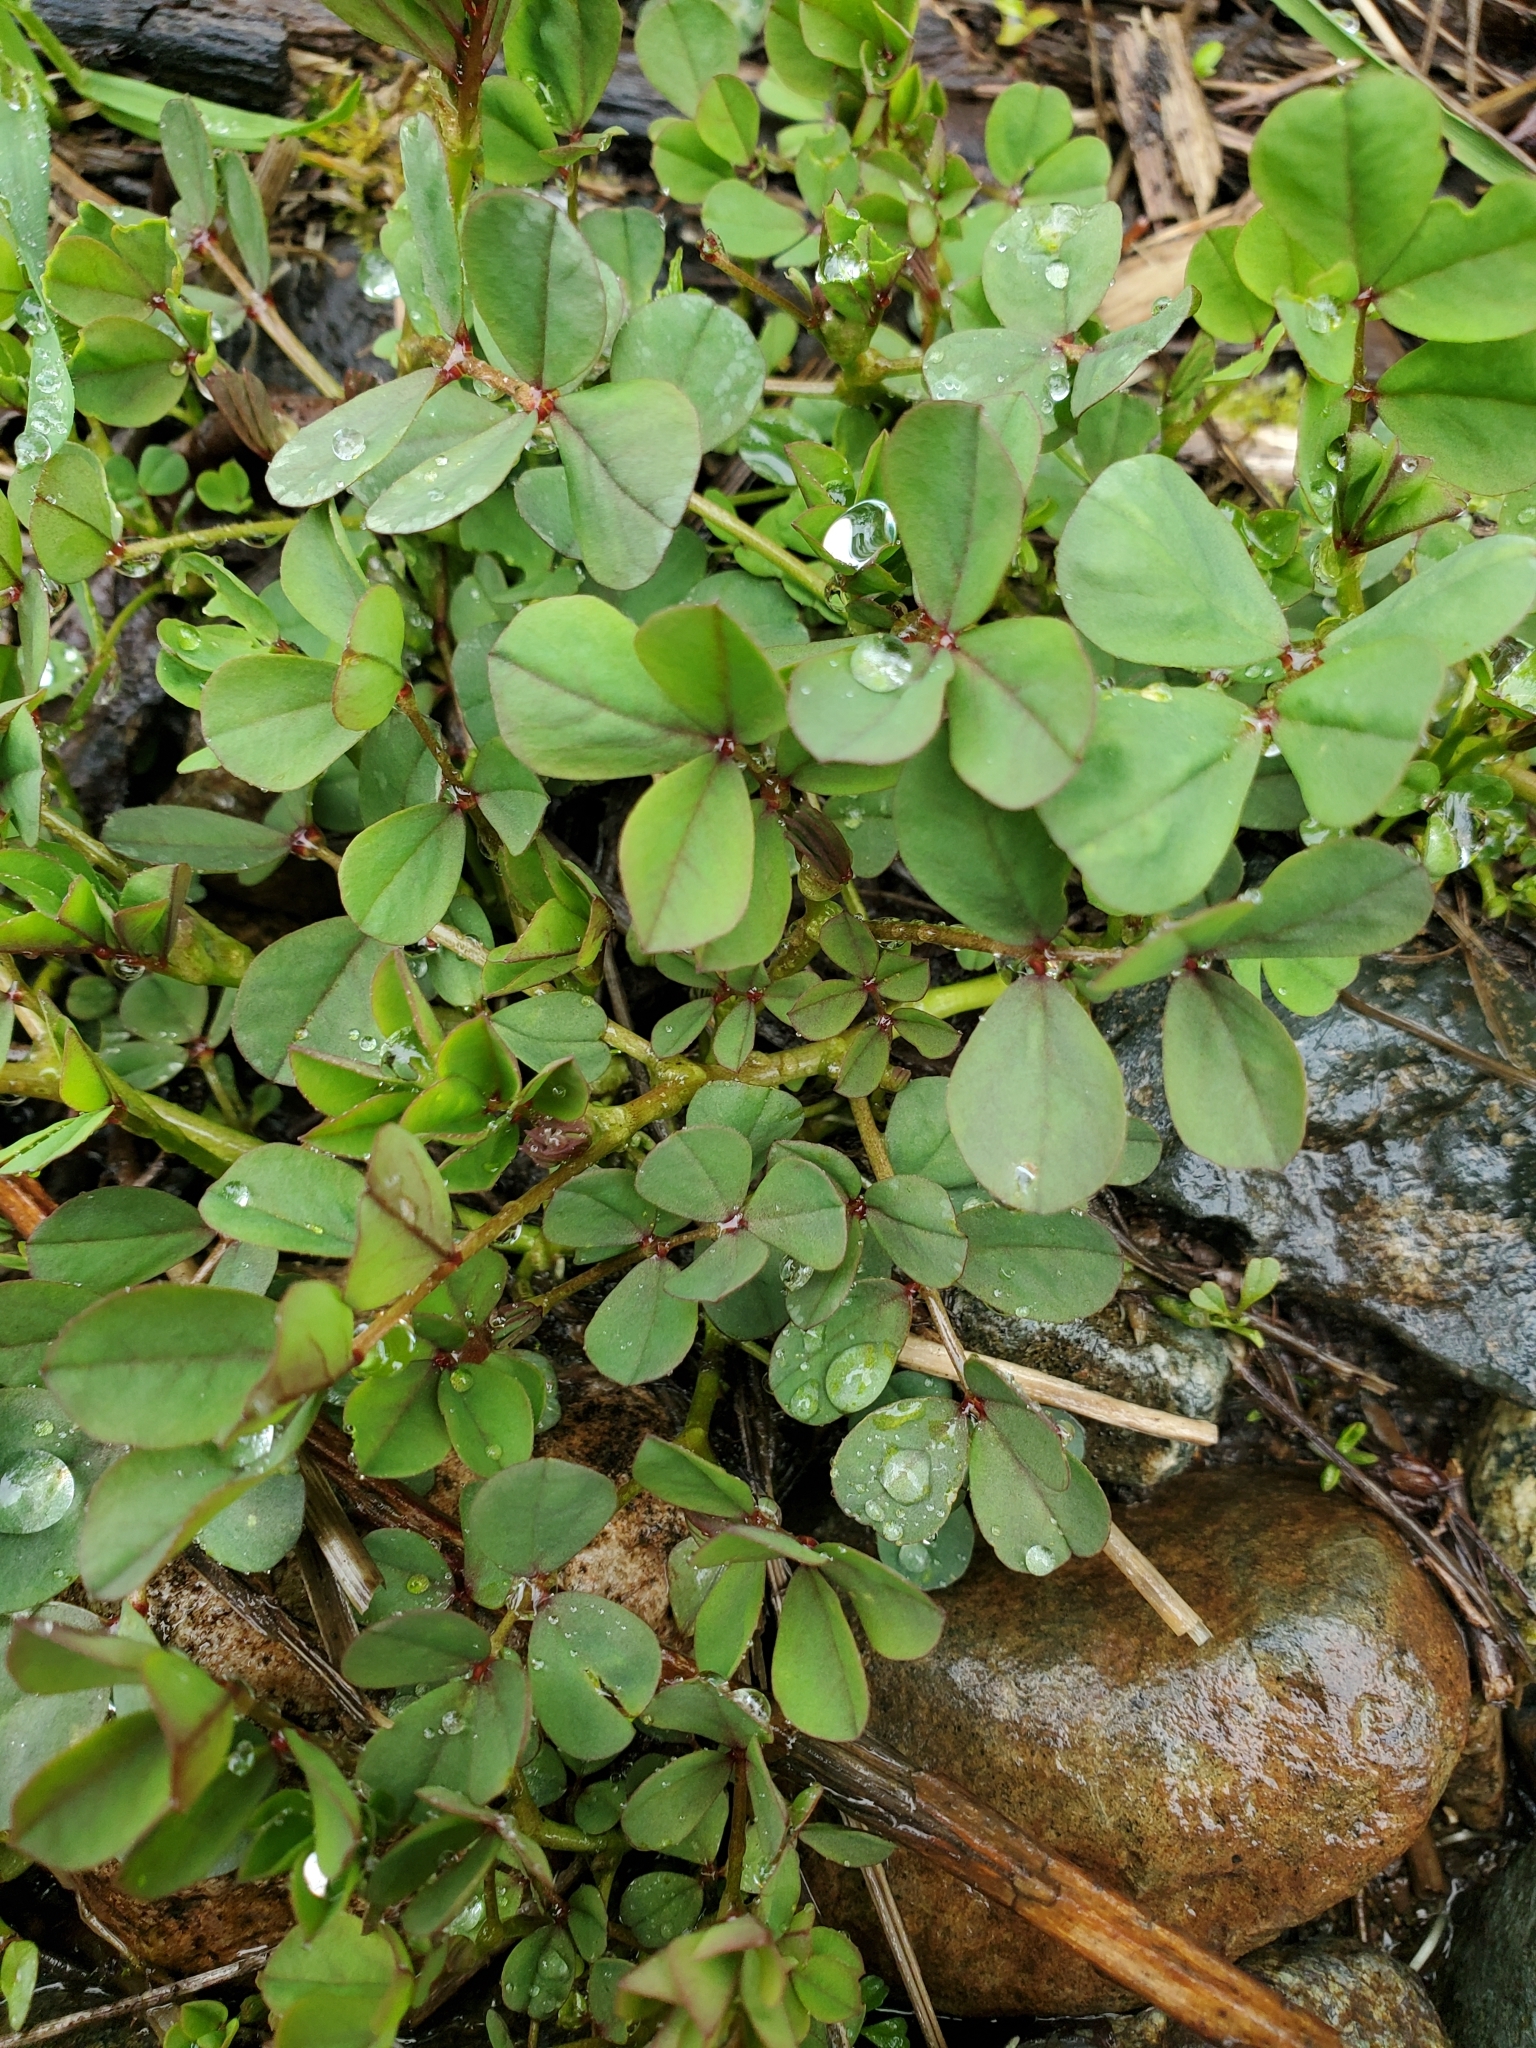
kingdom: Plantae
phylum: Tracheophyta
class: Magnoliopsida
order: Fabales
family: Fabaceae
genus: Hosackia
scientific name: Hosackia pinnata
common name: Bog bird's-foot trefoil
